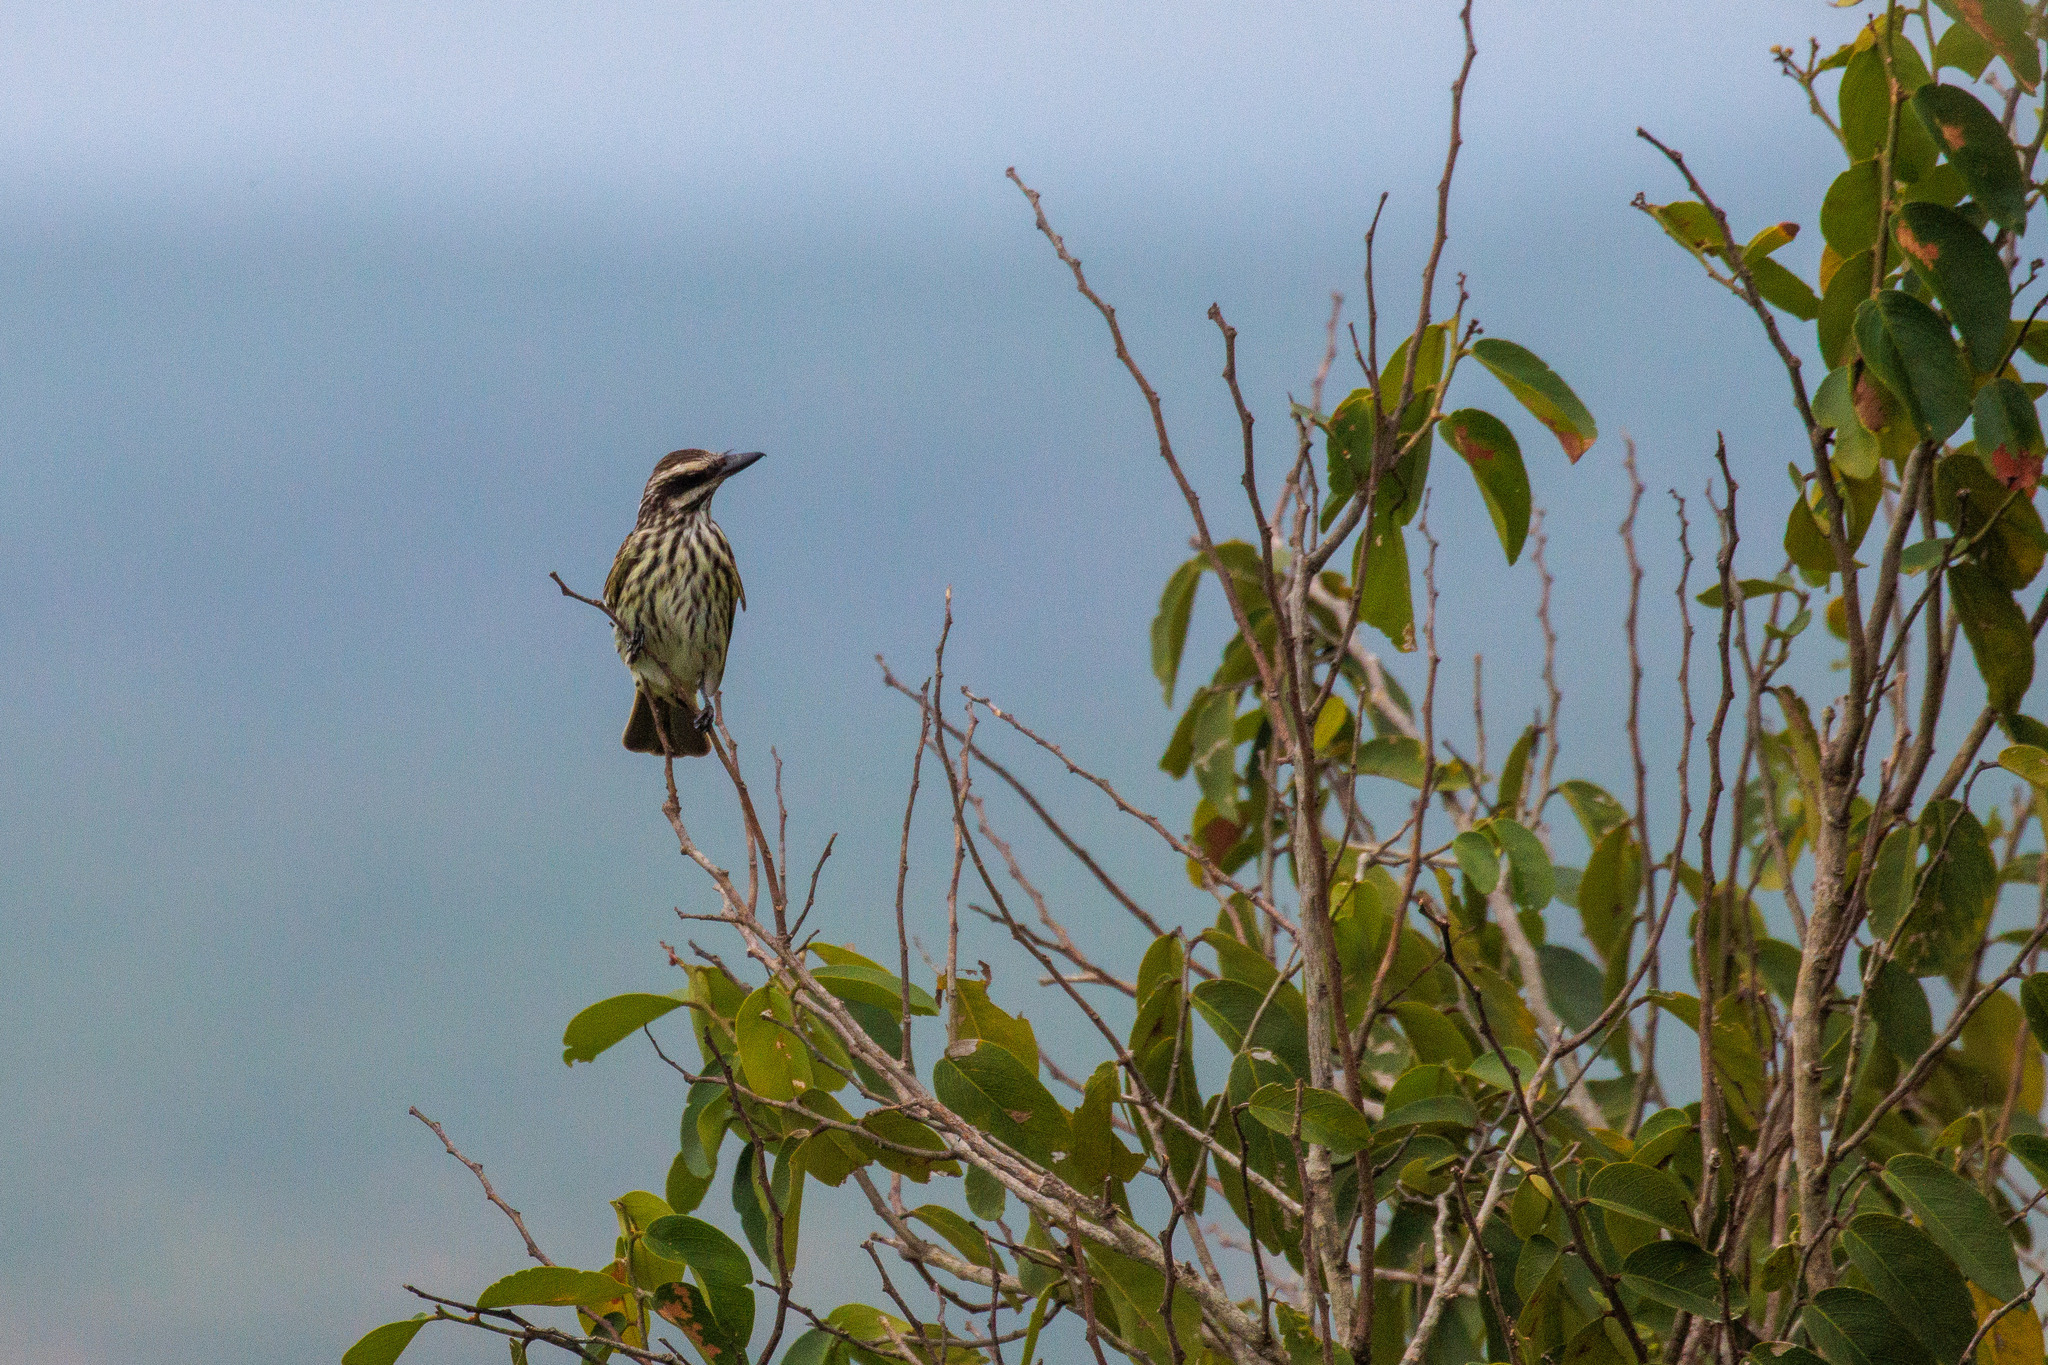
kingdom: Animalia
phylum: Chordata
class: Aves
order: Passeriformes
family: Tyrannidae
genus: Myiodynastes
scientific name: Myiodynastes maculatus
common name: Streaked flycatcher
